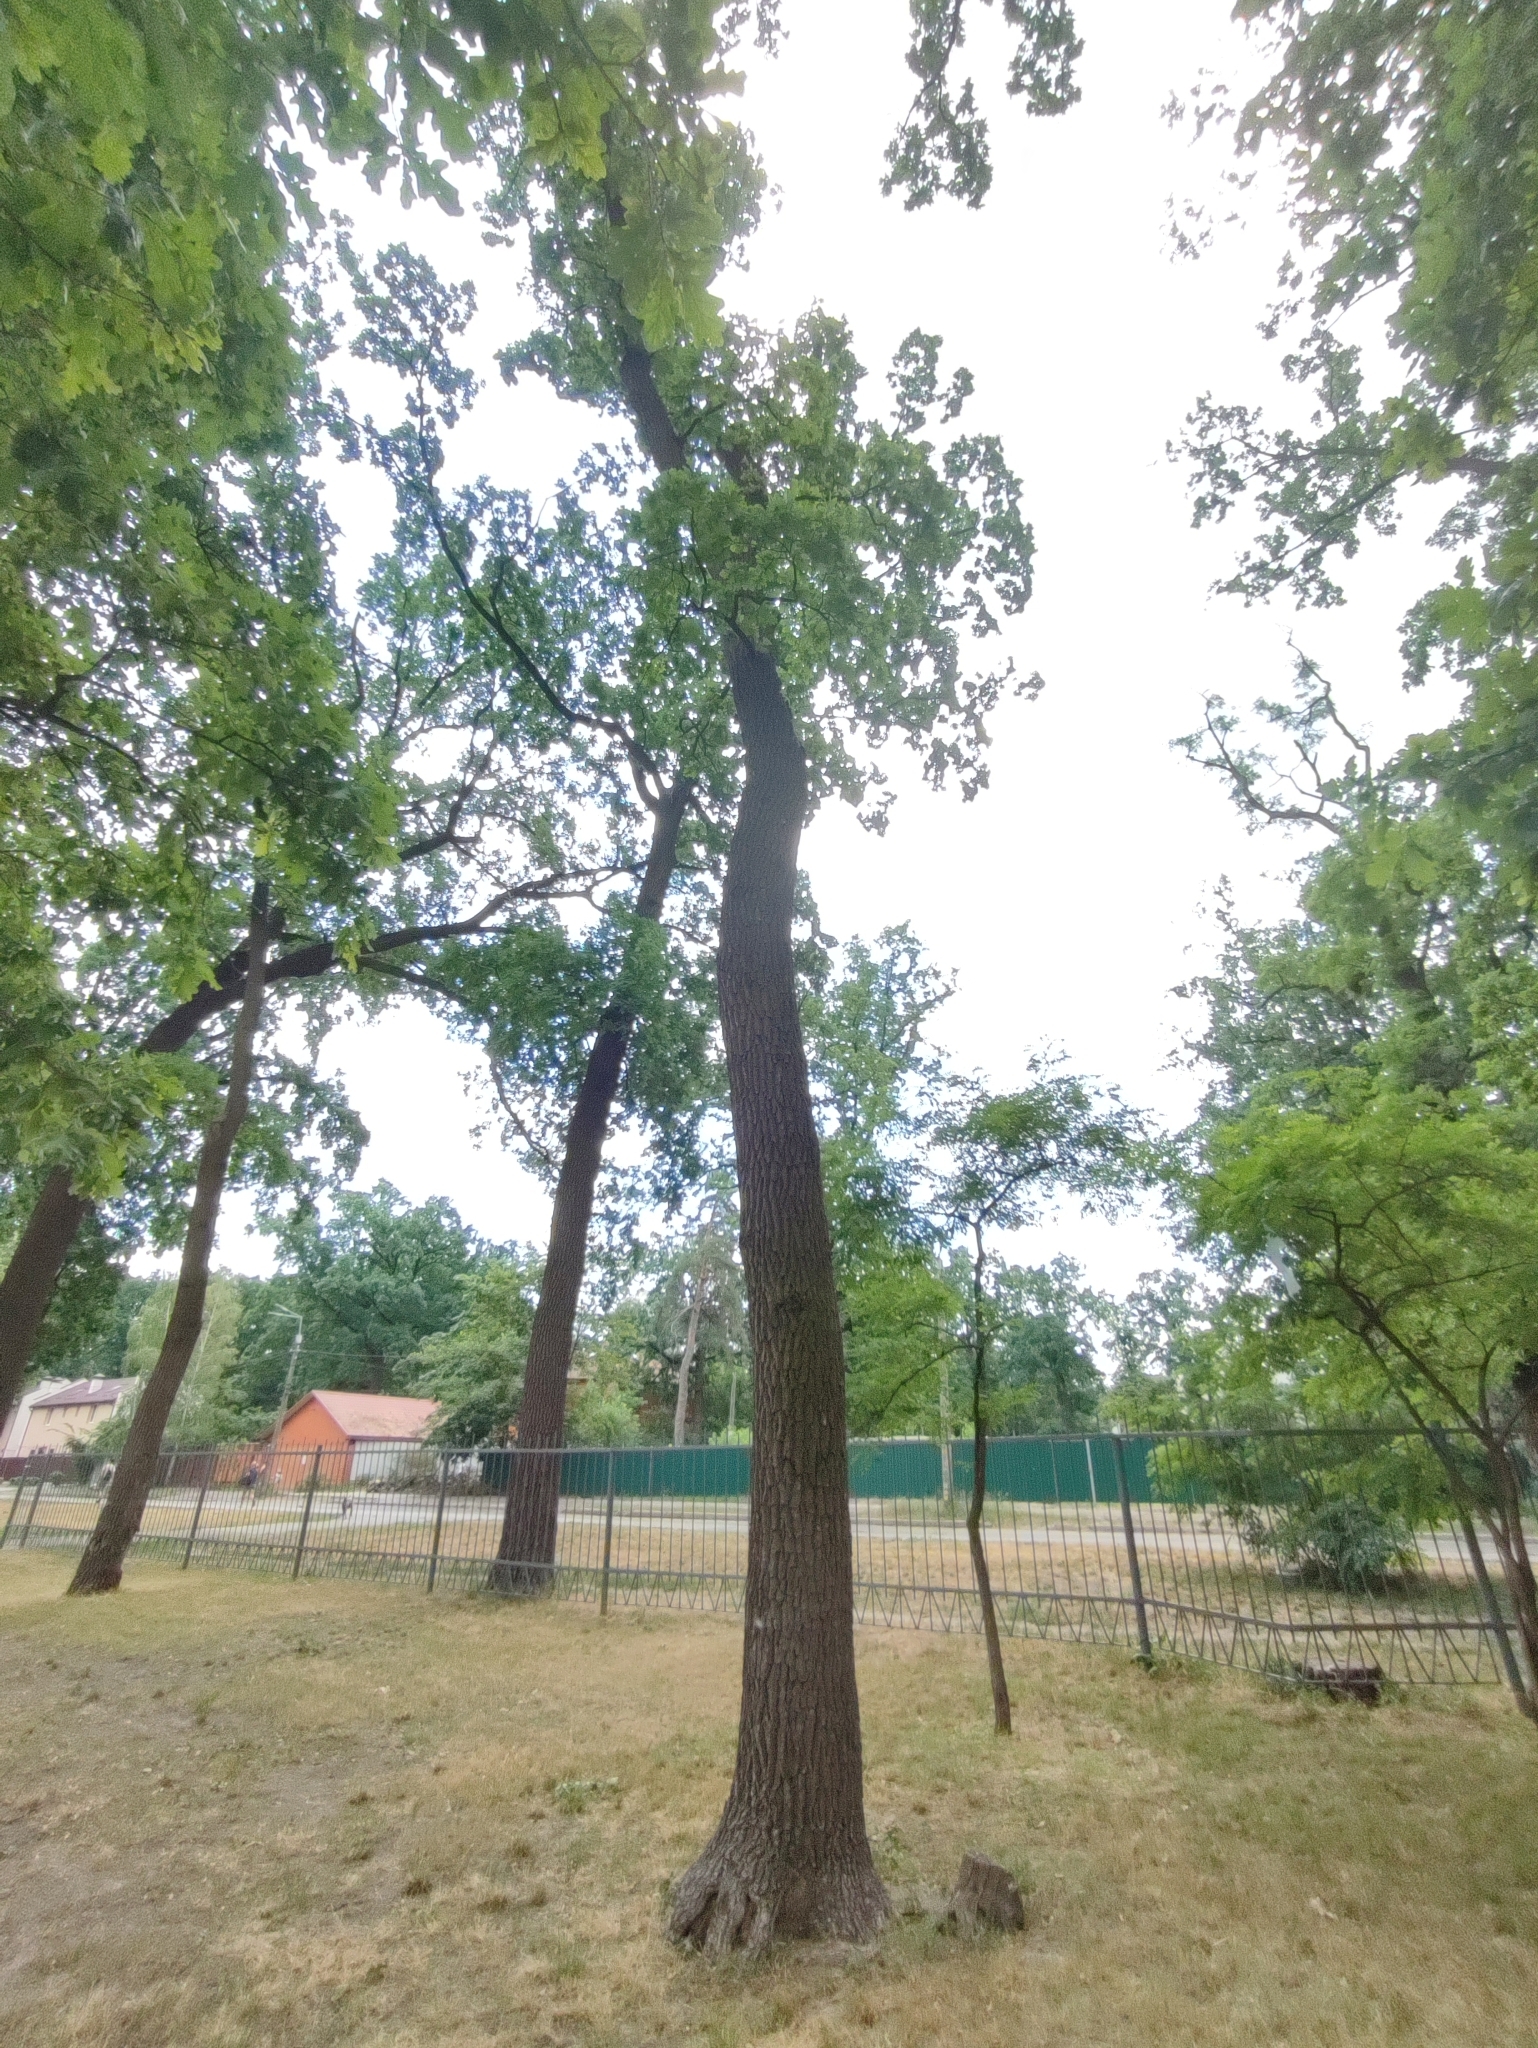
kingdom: Plantae
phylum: Tracheophyta
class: Magnoliopsida
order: Fagales
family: Fagaceae
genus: Quercus
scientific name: Quercus robur
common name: Pedunculate oak
